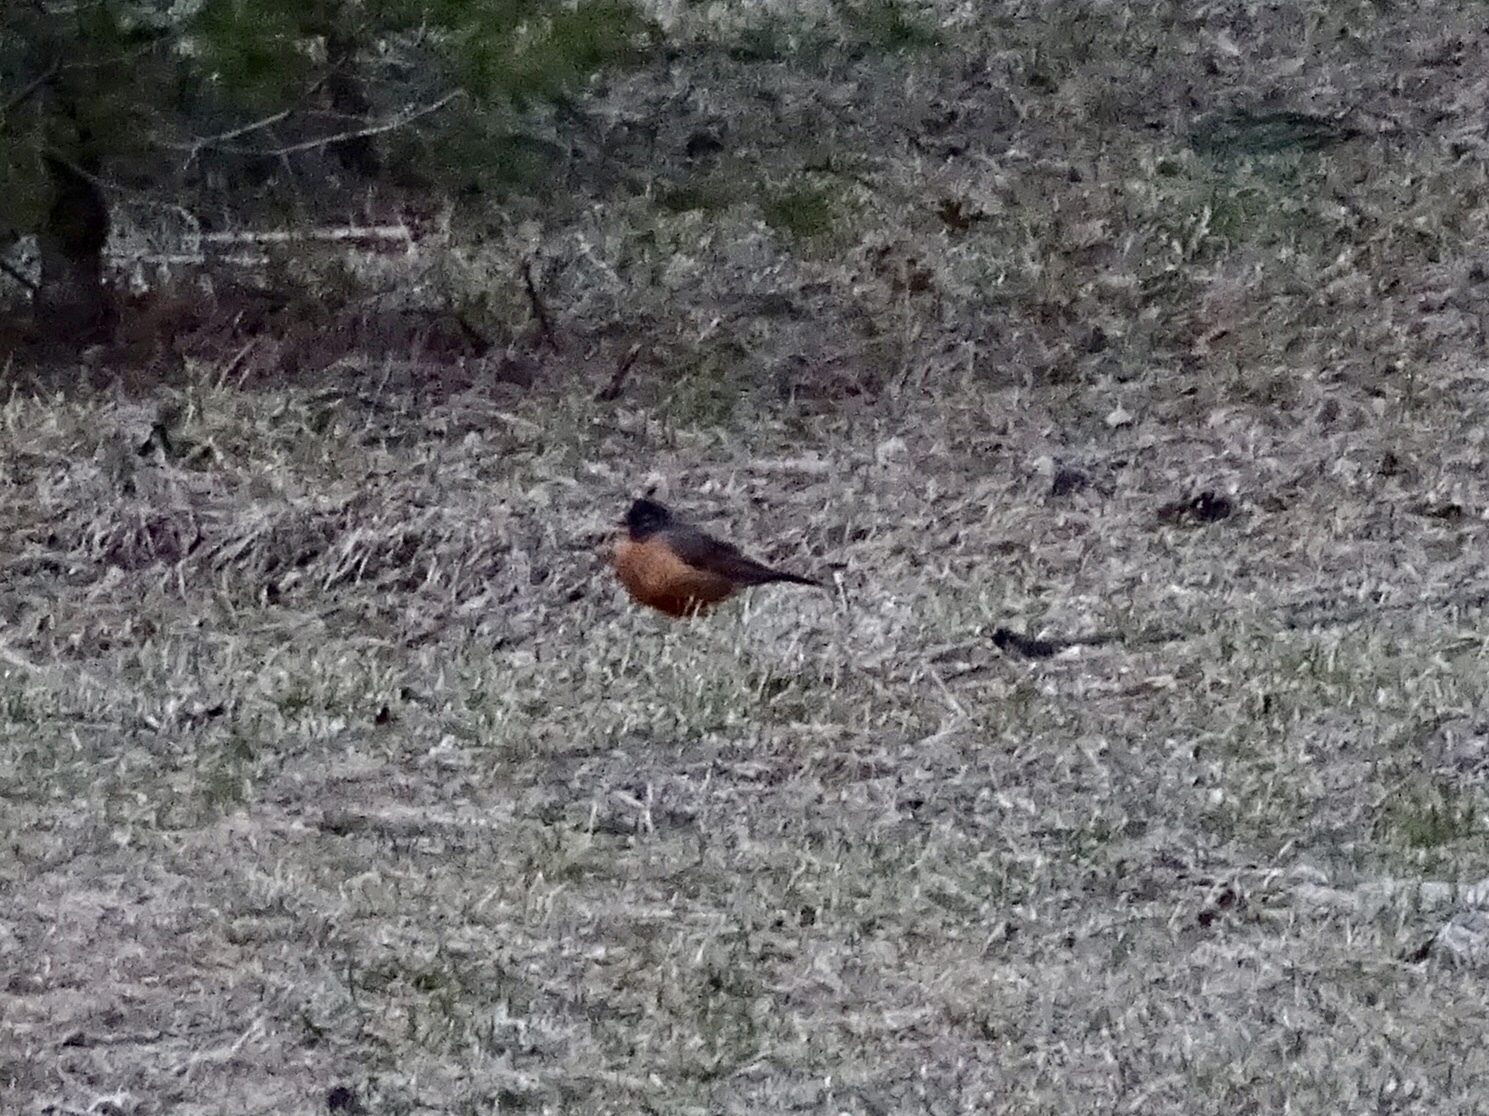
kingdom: Animalia
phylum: Chordata
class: Aves
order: Passeriformes
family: Turdidae
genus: Turdus
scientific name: Turdus migratorius
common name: American robin
